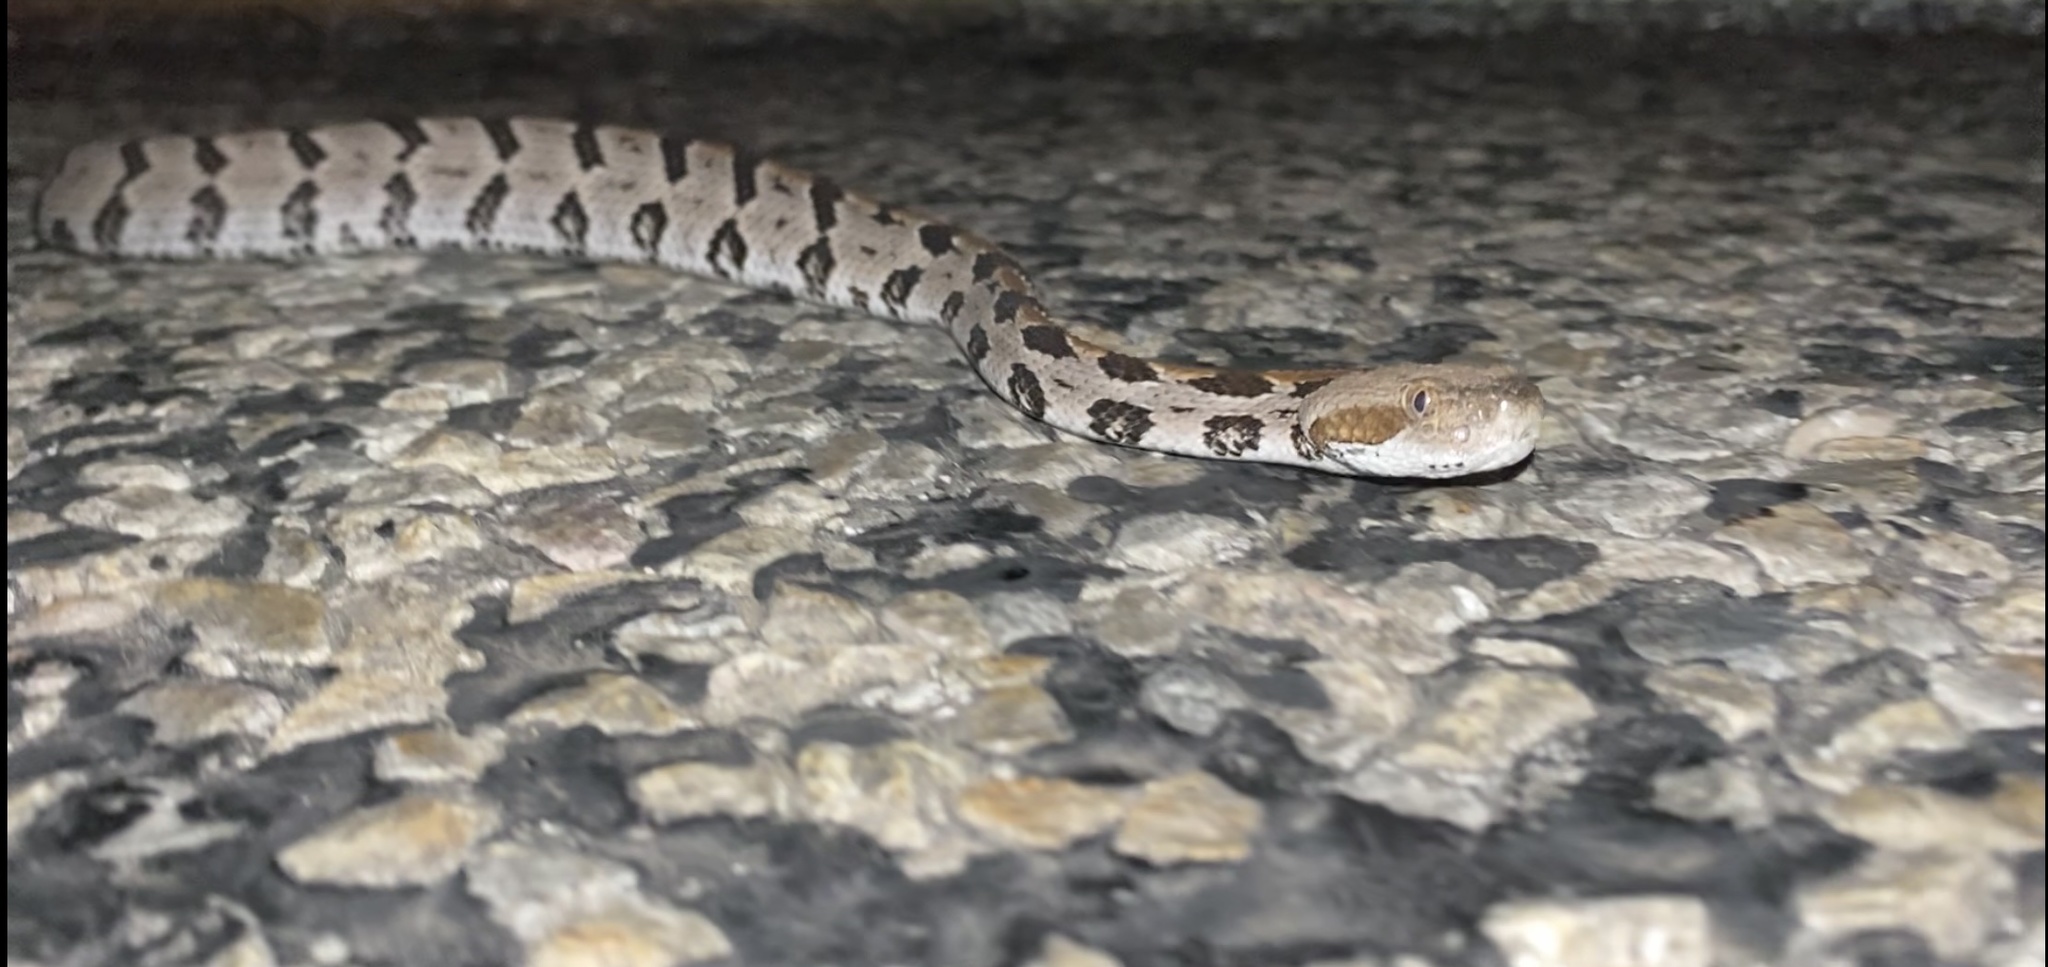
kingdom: Animalia
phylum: Chordata
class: Squamata
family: Viperidae
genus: Crotalus
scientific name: Crotalus horridus
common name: Timber rattlesnake
